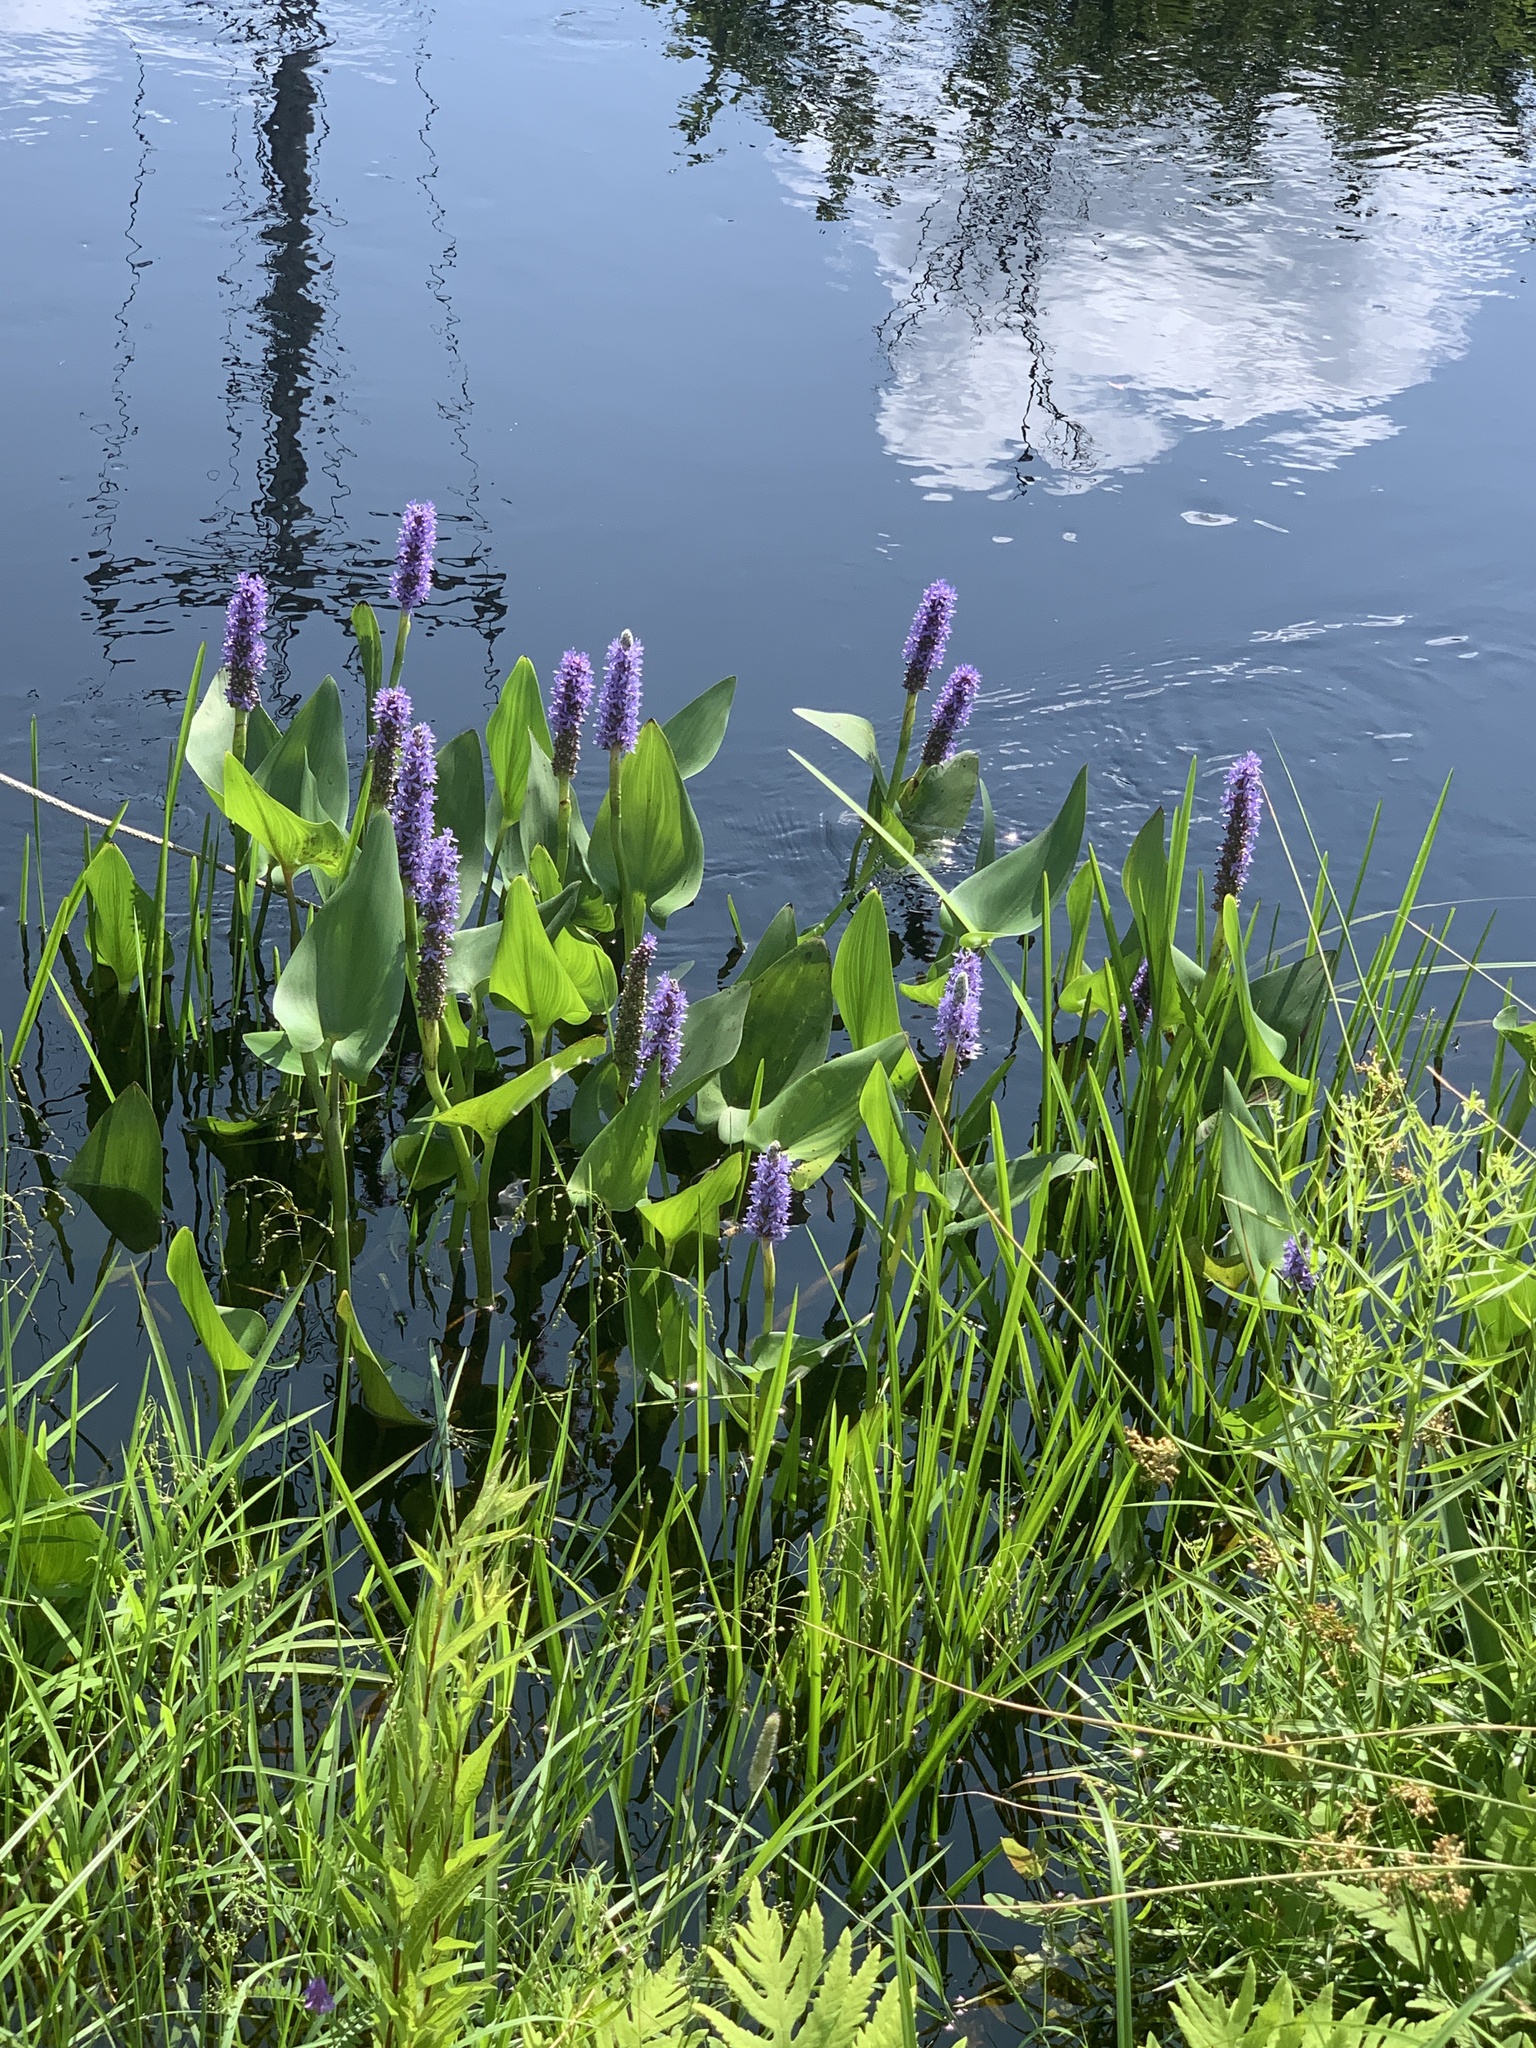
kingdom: Plantae
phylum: Tracheophyta
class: Liliopsida
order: Commelinales
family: Pontederiaceae
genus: Pontederia
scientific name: Pontederia cordata
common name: Pickerelweed
